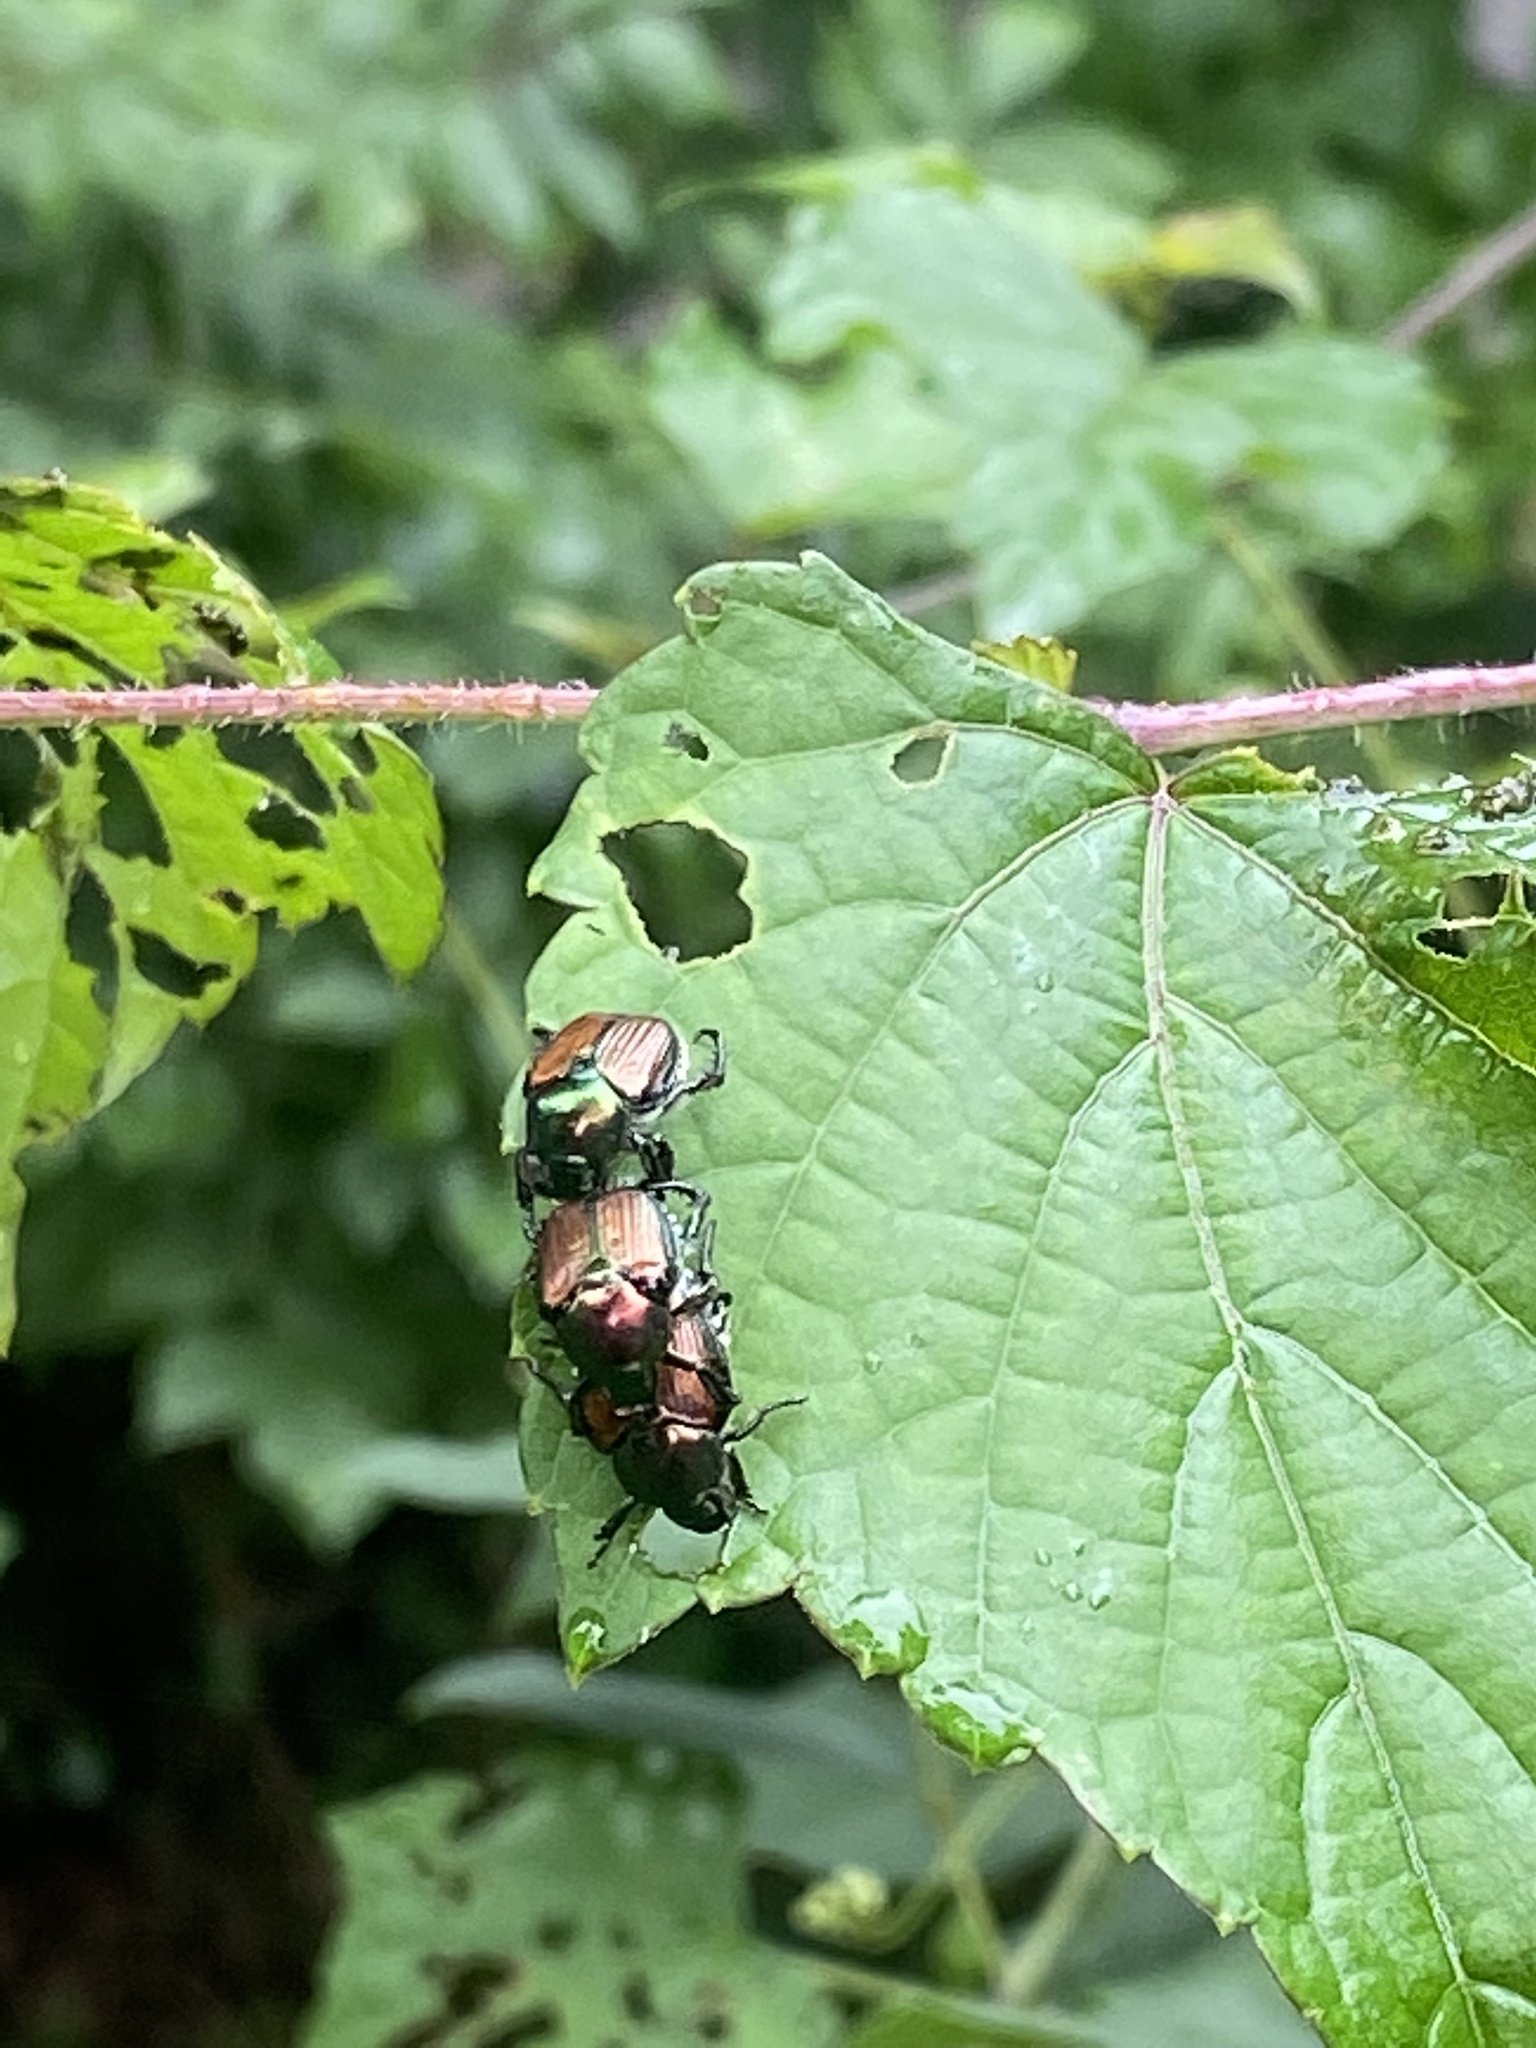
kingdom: Animalia
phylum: Arthropoda
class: Insecta
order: Coleoptera
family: Scarabaeidae
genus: Popillia
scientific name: Popillia japonica
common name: Japanese beetle
